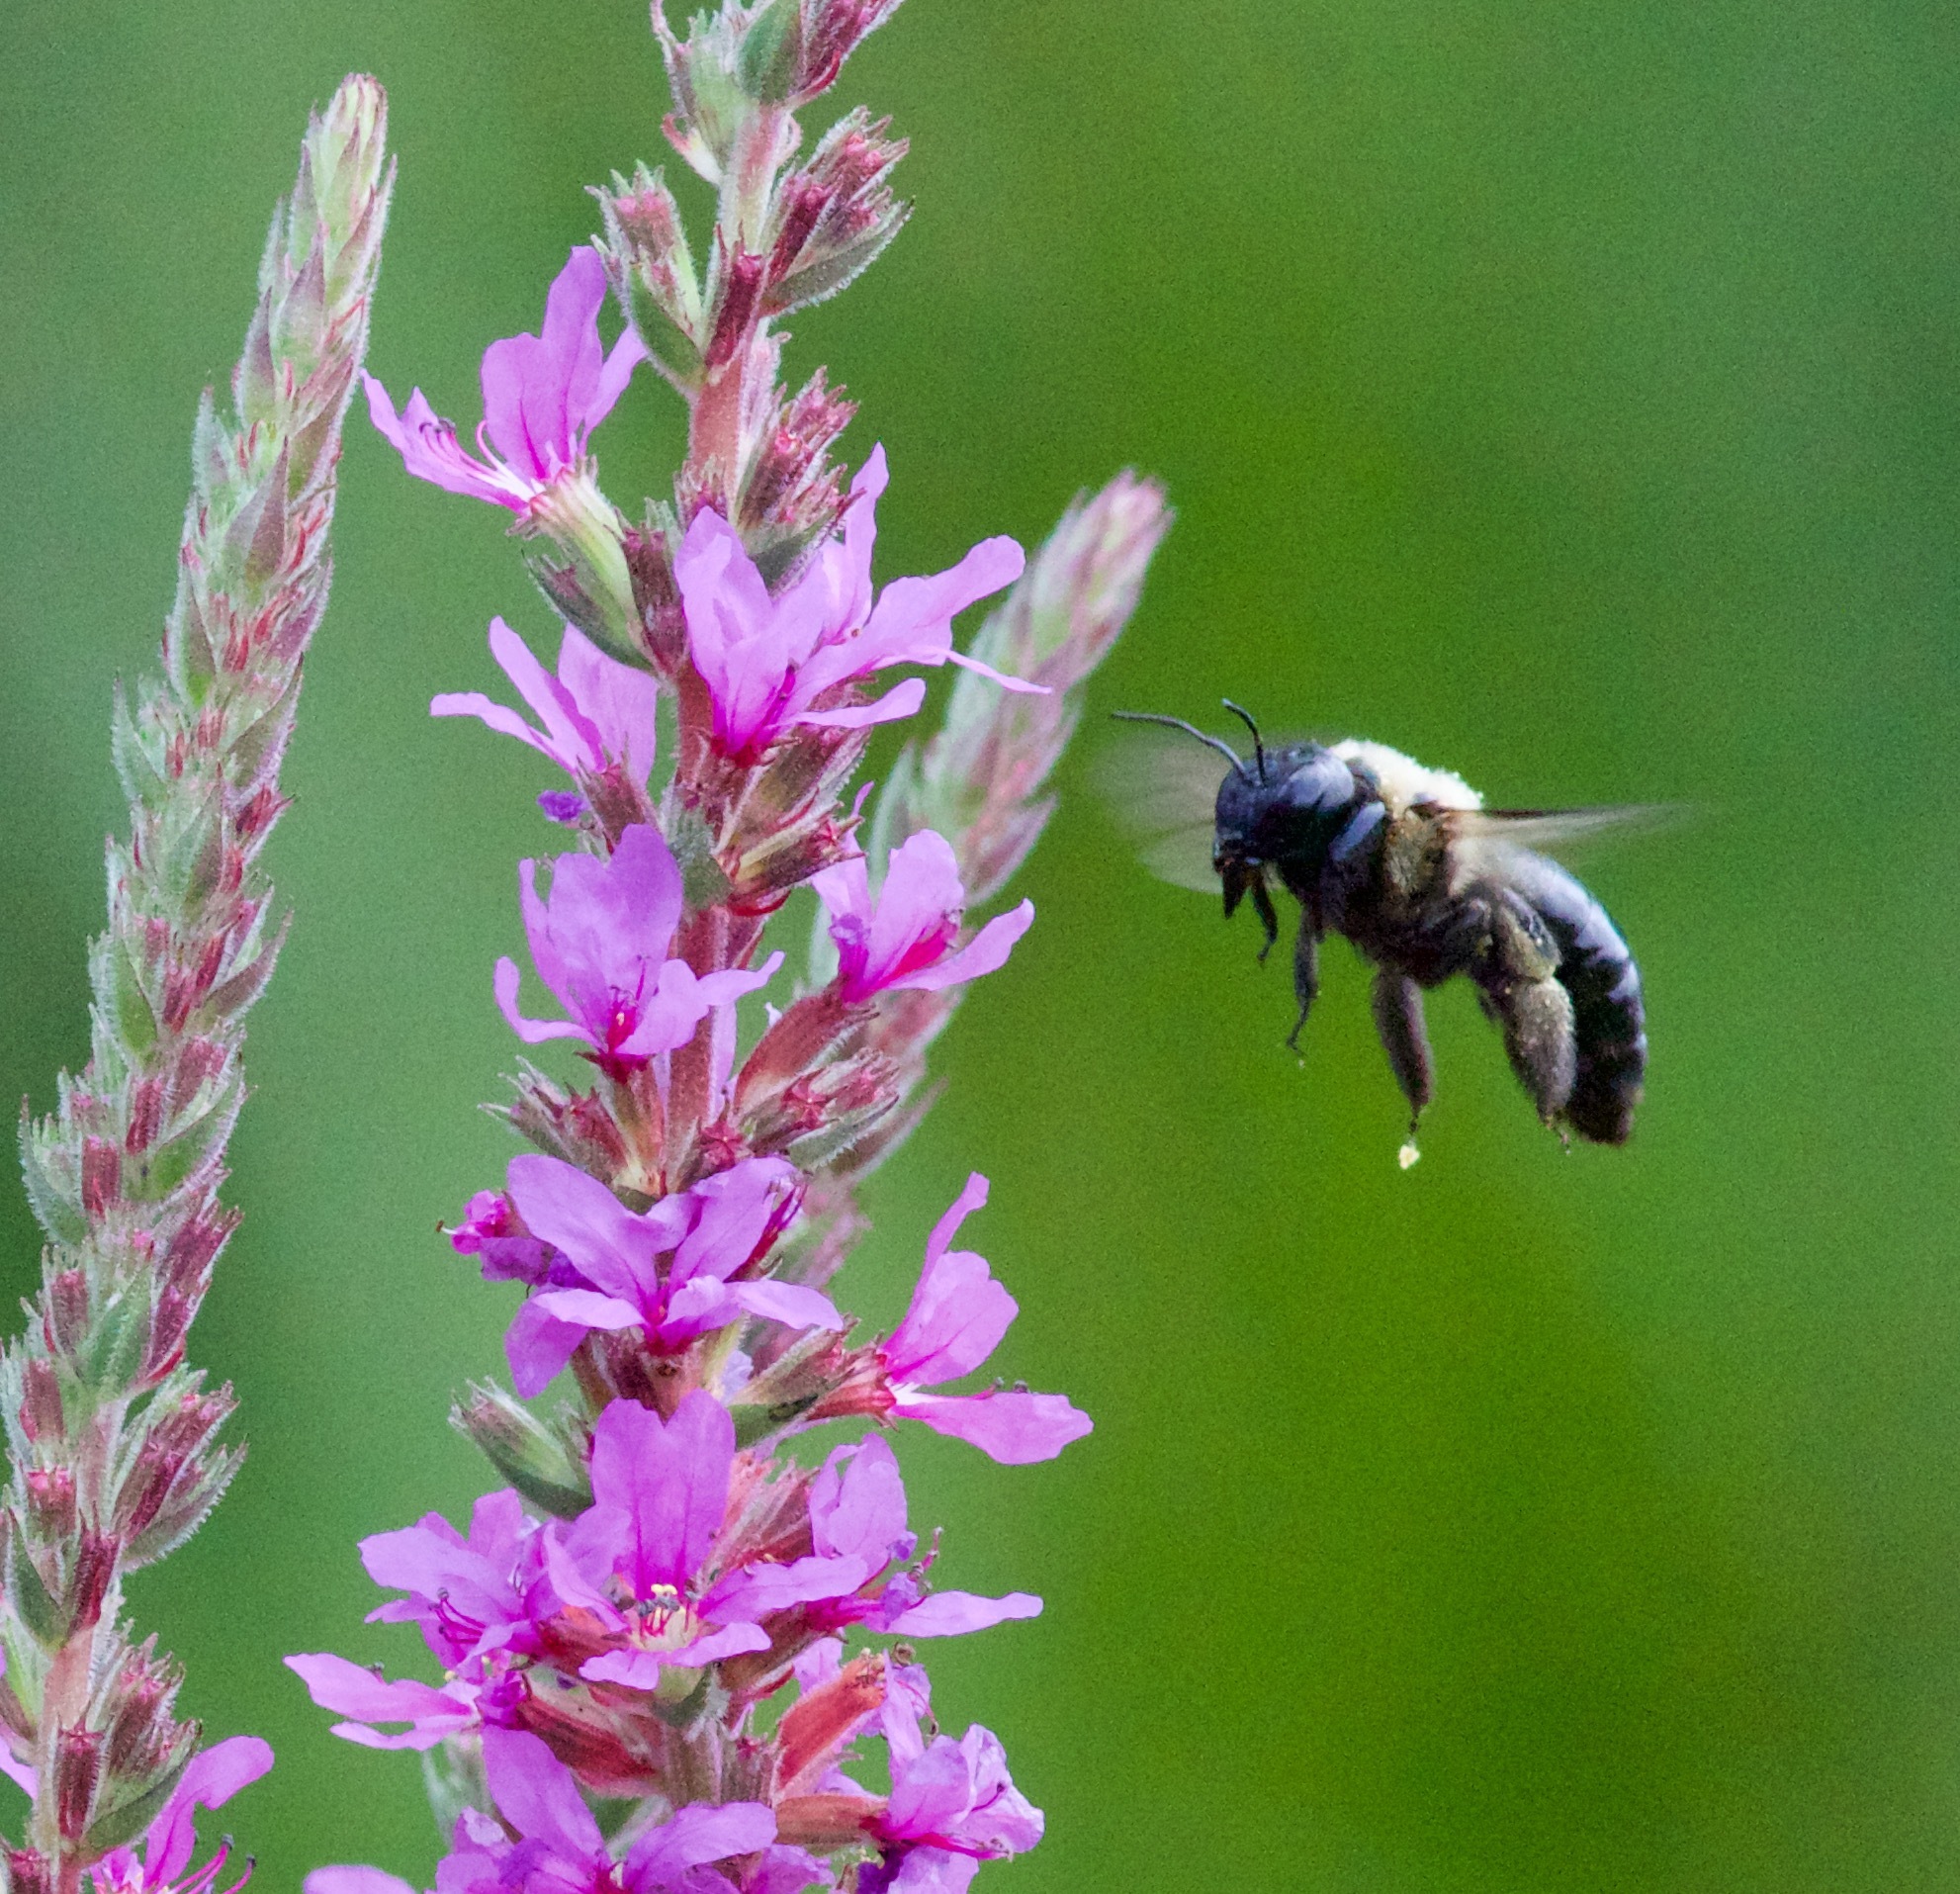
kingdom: Animalia
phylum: Arthropoda
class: Insecta
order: Hymenoptera
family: Apidae
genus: Xylocopa
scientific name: Xylocopa virginica
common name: Carpenter bee
